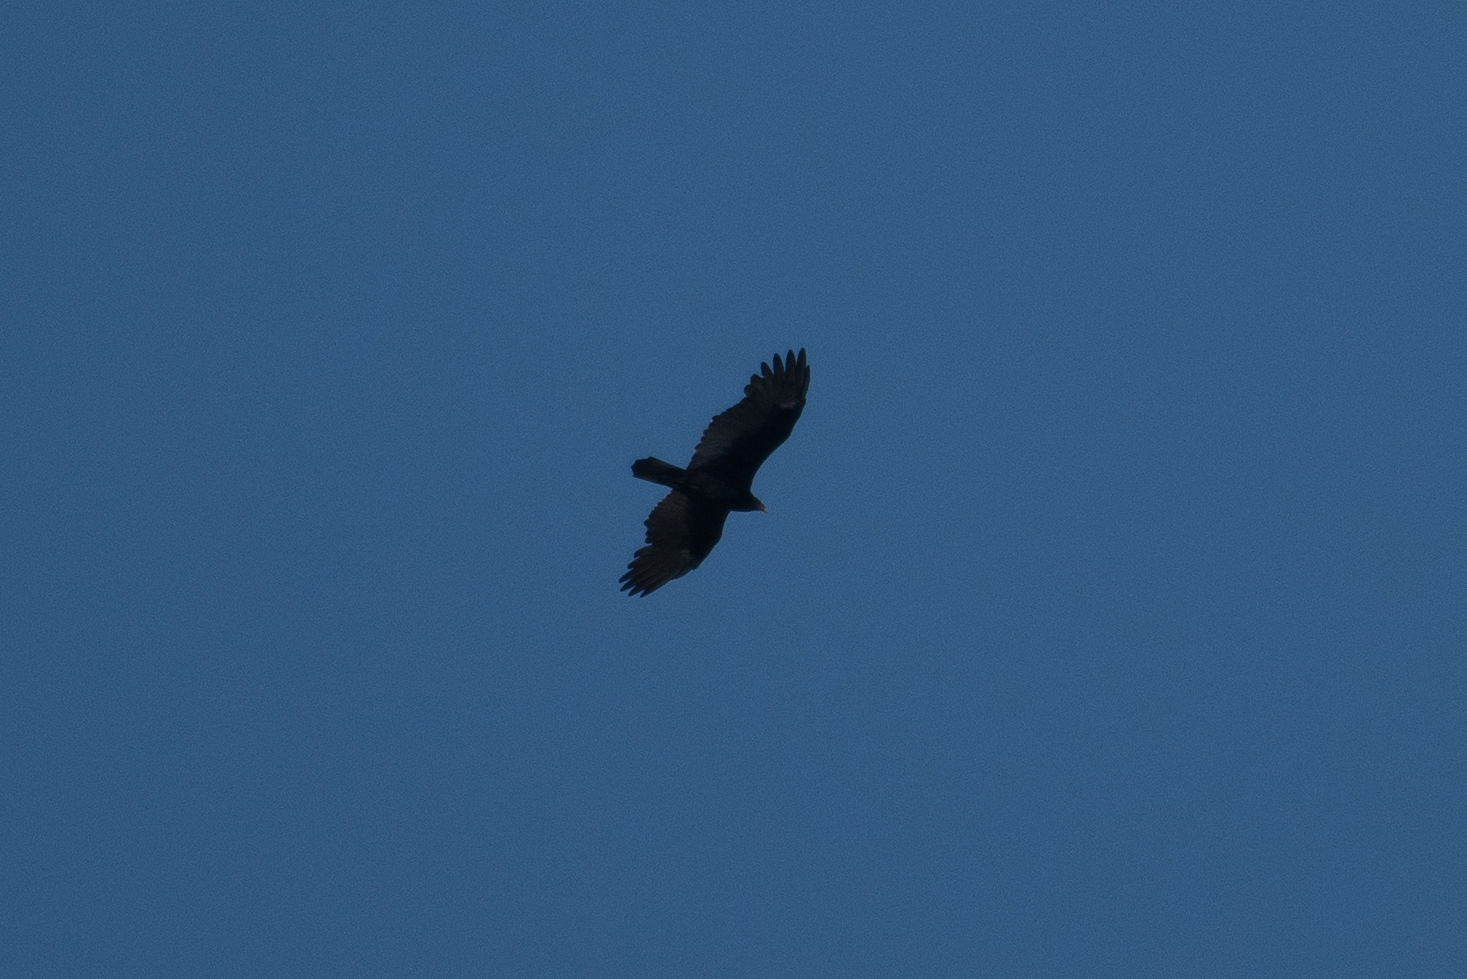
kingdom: Animalia
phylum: Chordata
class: Aves
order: Accipitriformes
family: Cathartidae
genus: Cathartes
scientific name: Cathartes aura
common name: Turkey vulture
